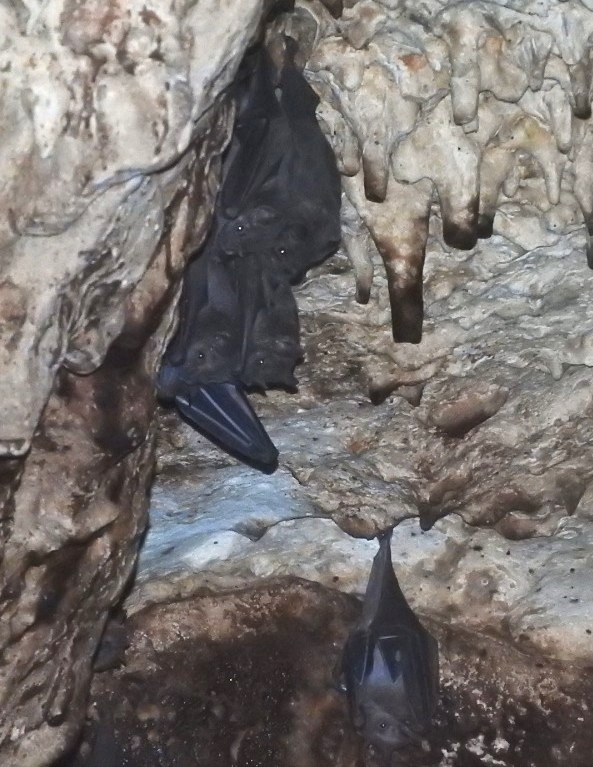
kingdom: Animalia
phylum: Chordata
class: Mammalia
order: Chiroptera
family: Phyllostomidae
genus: Artibeus
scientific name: Artibeus jamaicensis
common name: Jamaican fruit-eating bat
